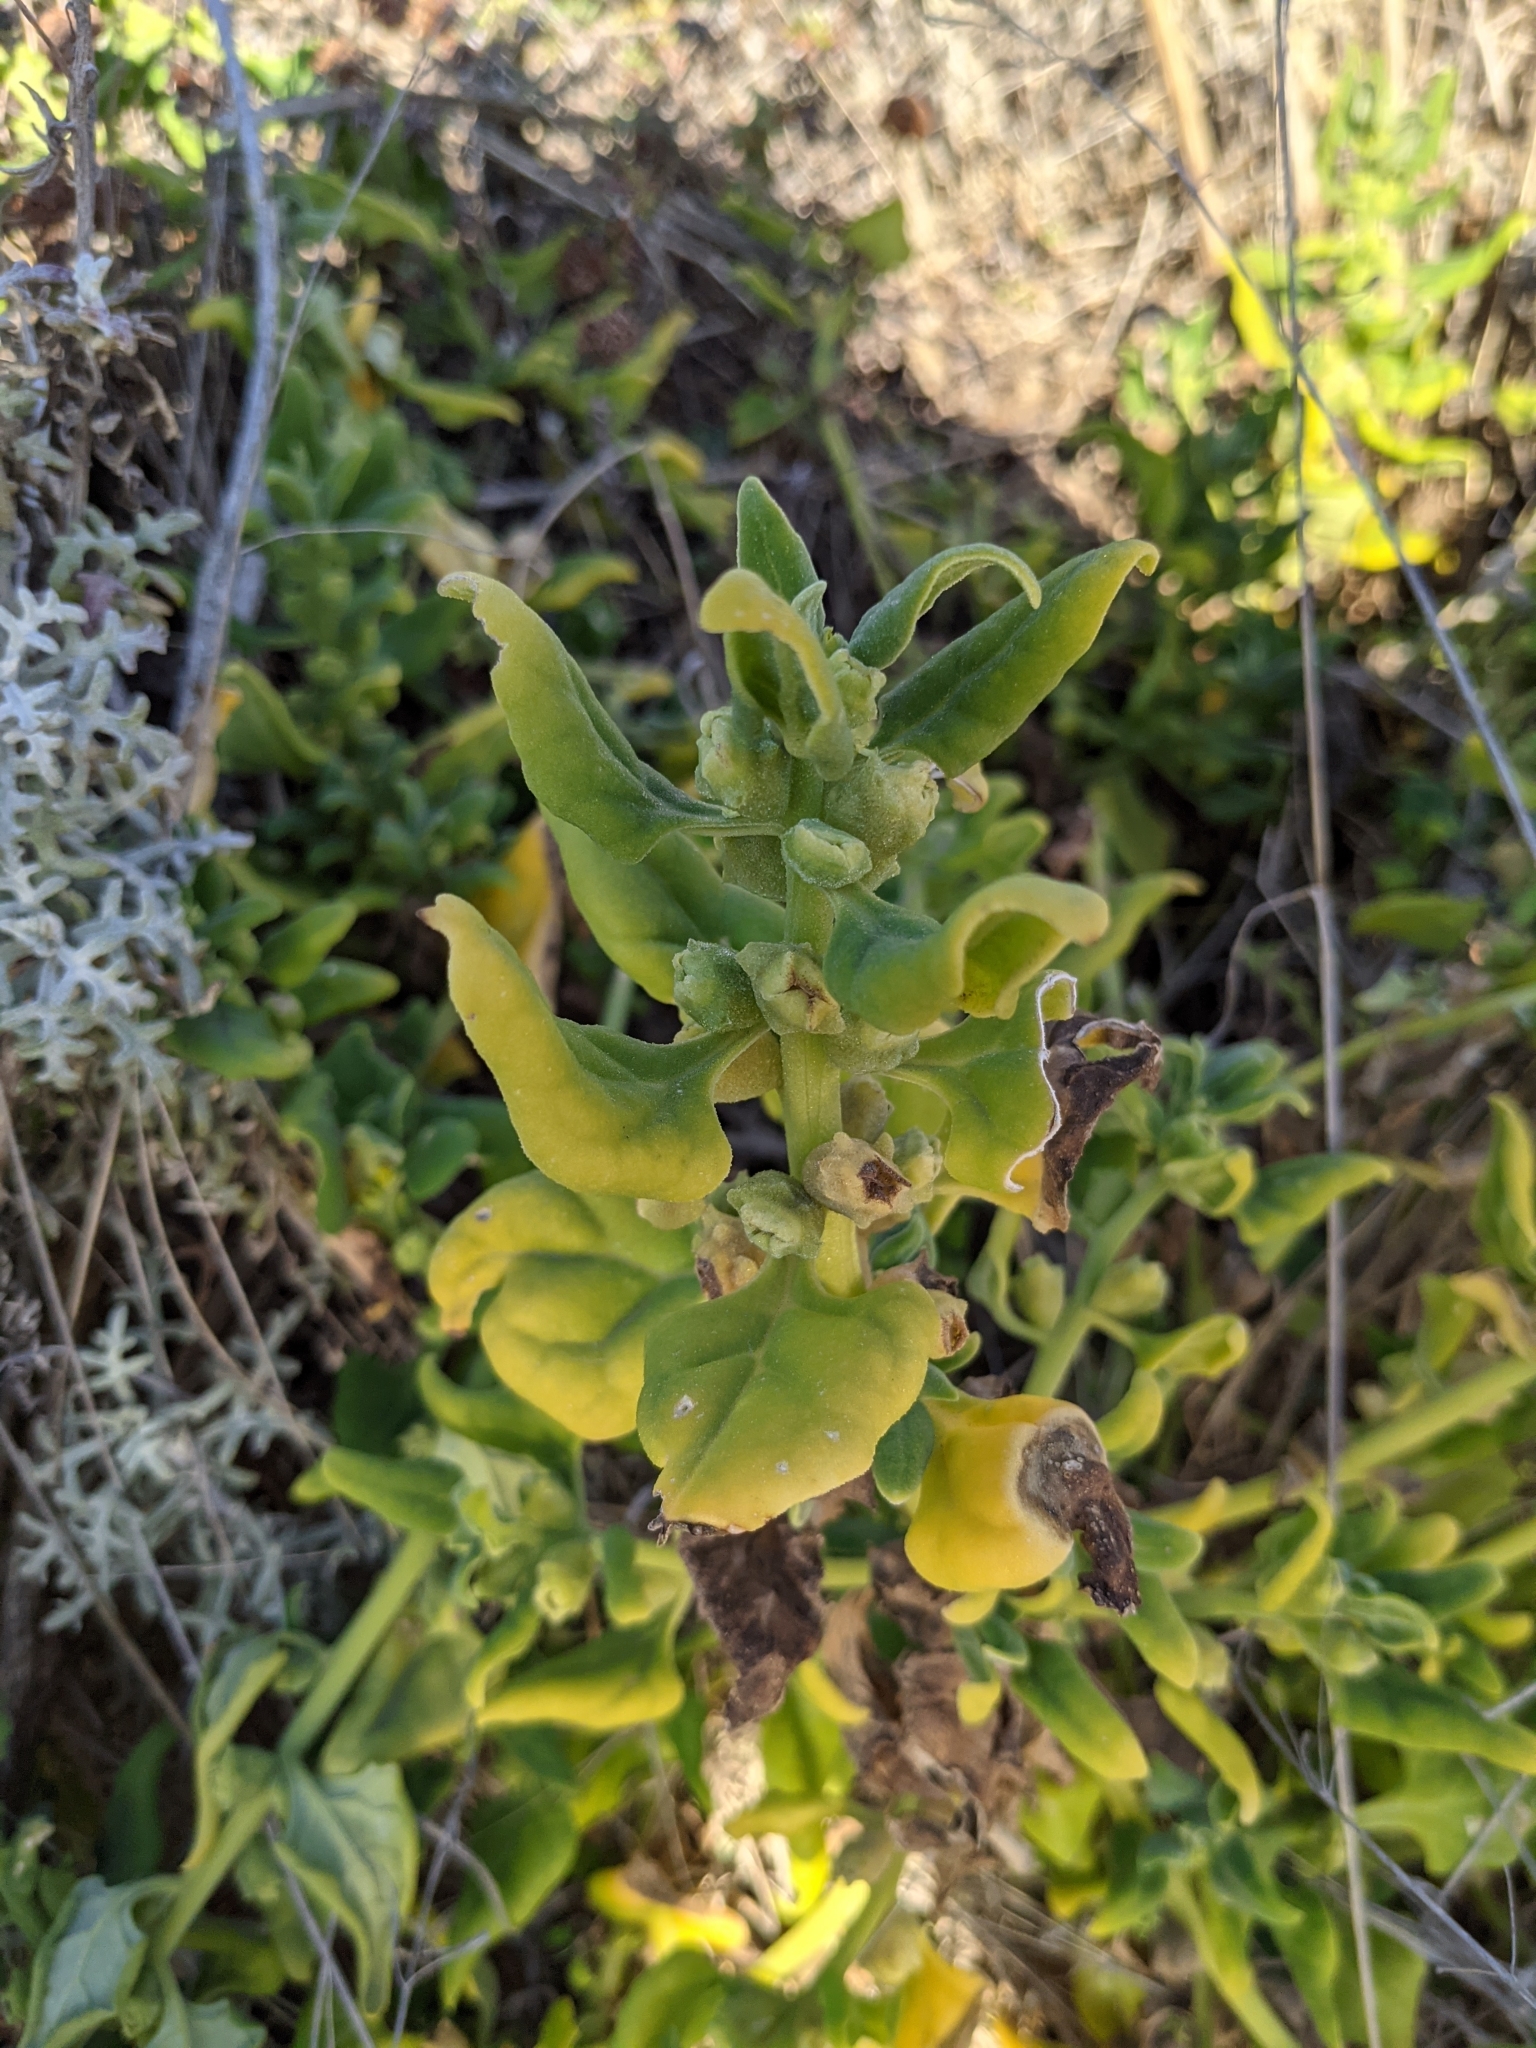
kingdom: Plantae
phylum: Tracheophyta
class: Magnoliopsida
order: Caryophyllales
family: Aizoaceae
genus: Tetragonia
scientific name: Tetragonia tetragonoides
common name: New zealand-spinach
